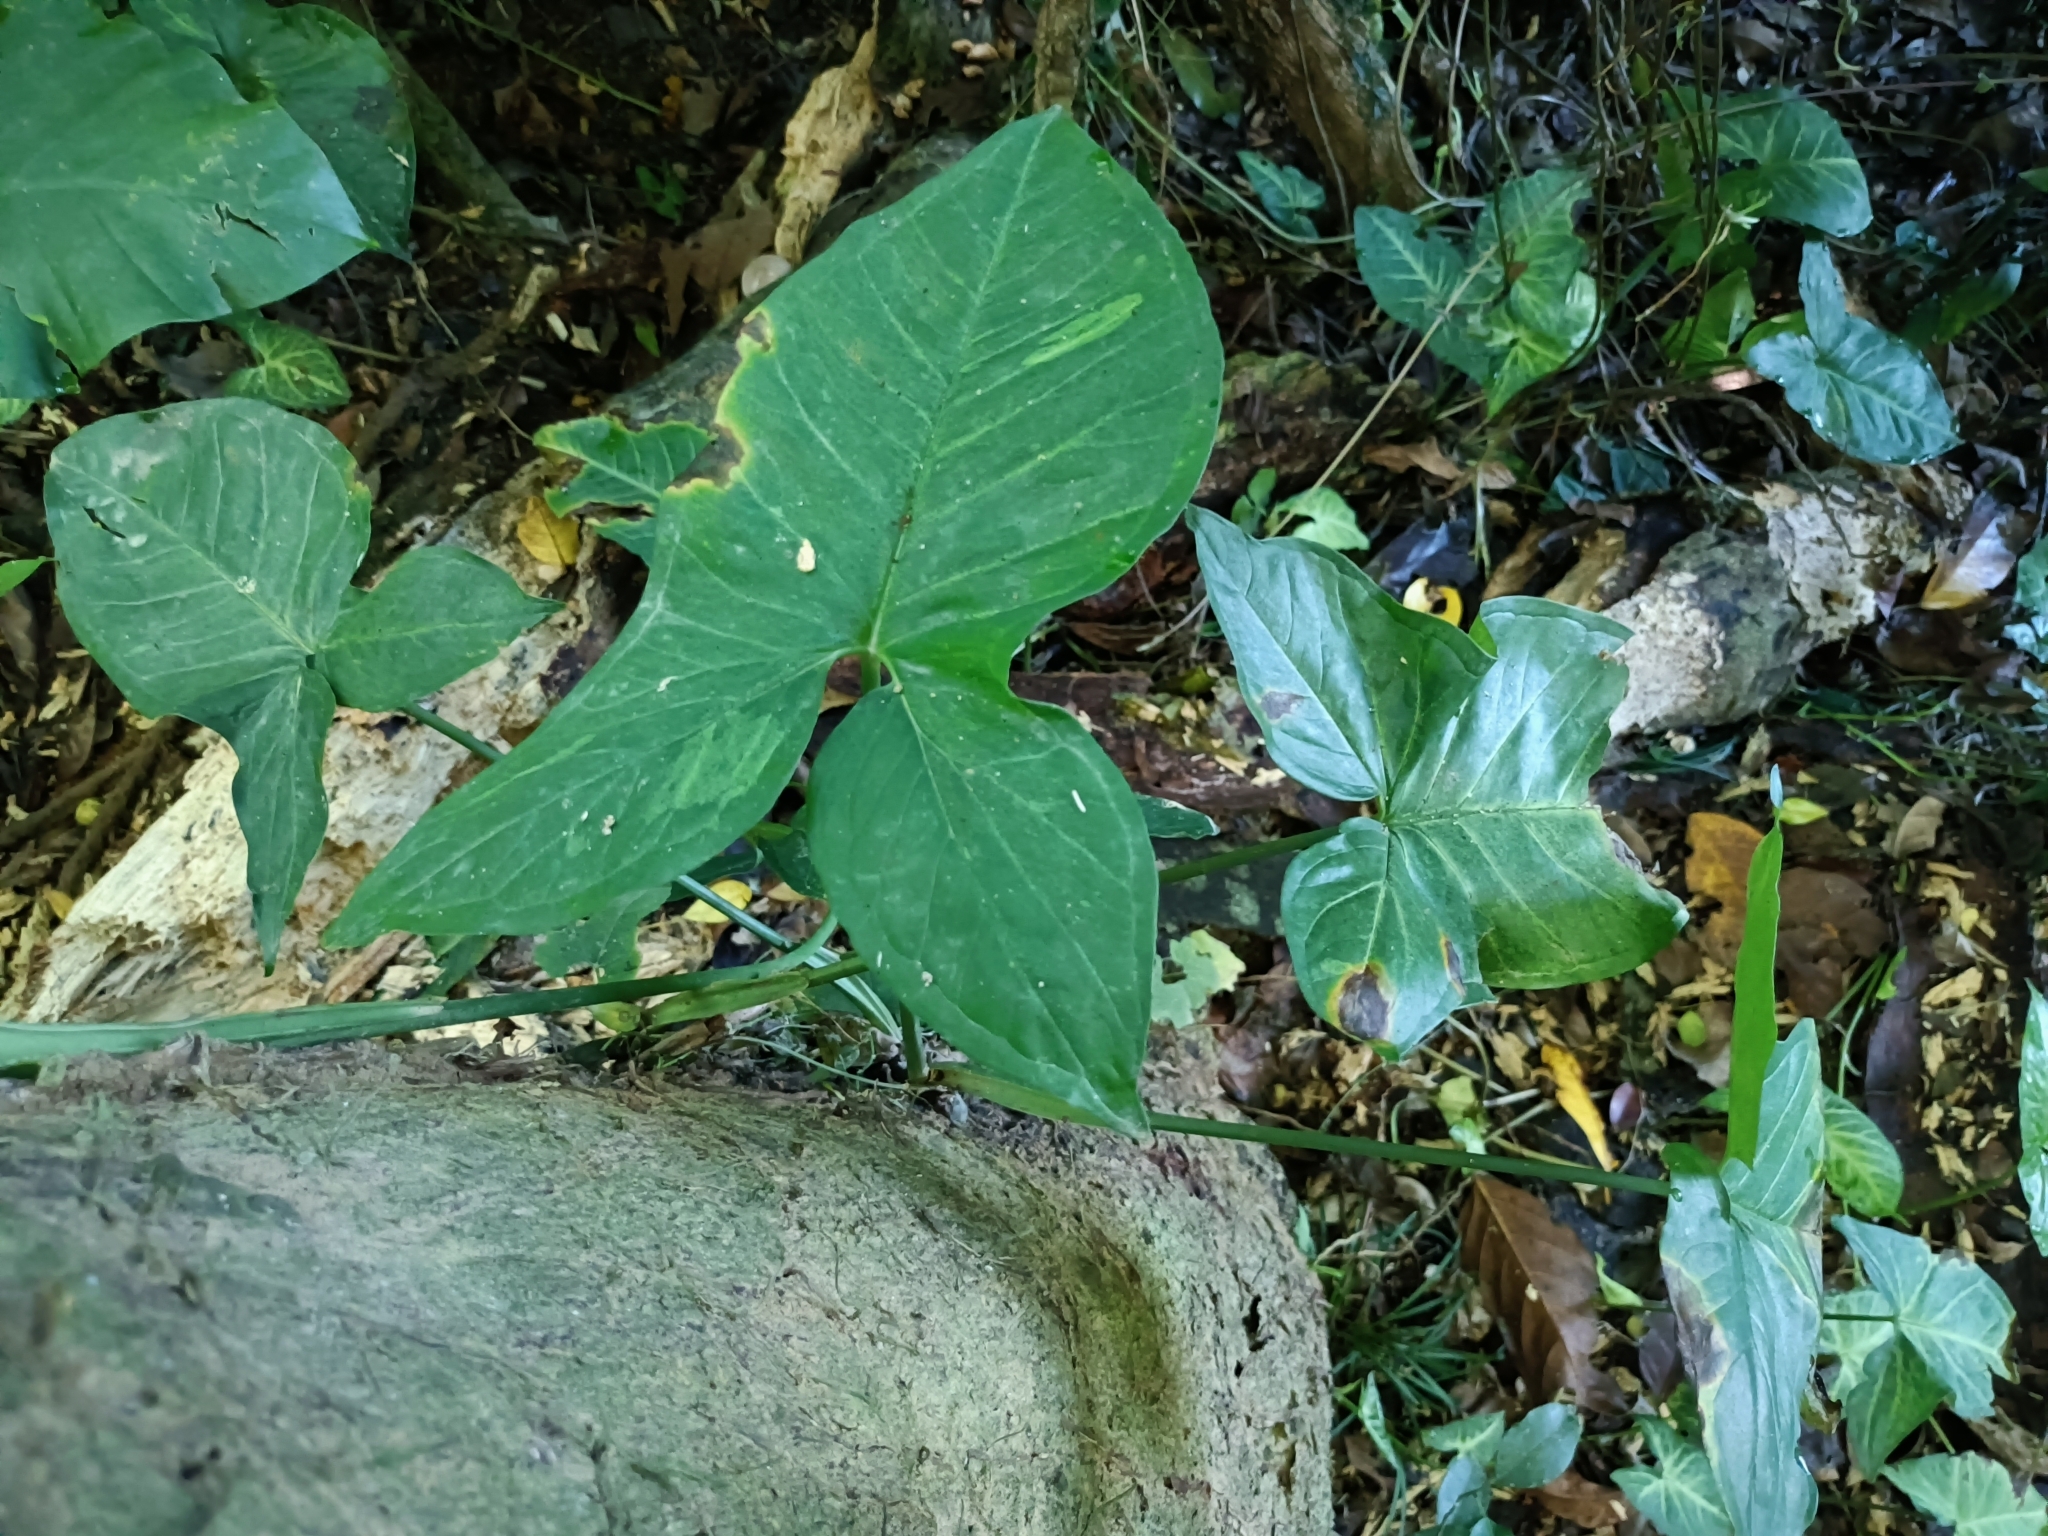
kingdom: Plantae
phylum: Tracheophyta
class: Liliopsida
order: Alismatales
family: Araceae
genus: Syngonium
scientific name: Syngonium podophyllum
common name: American evergreen
